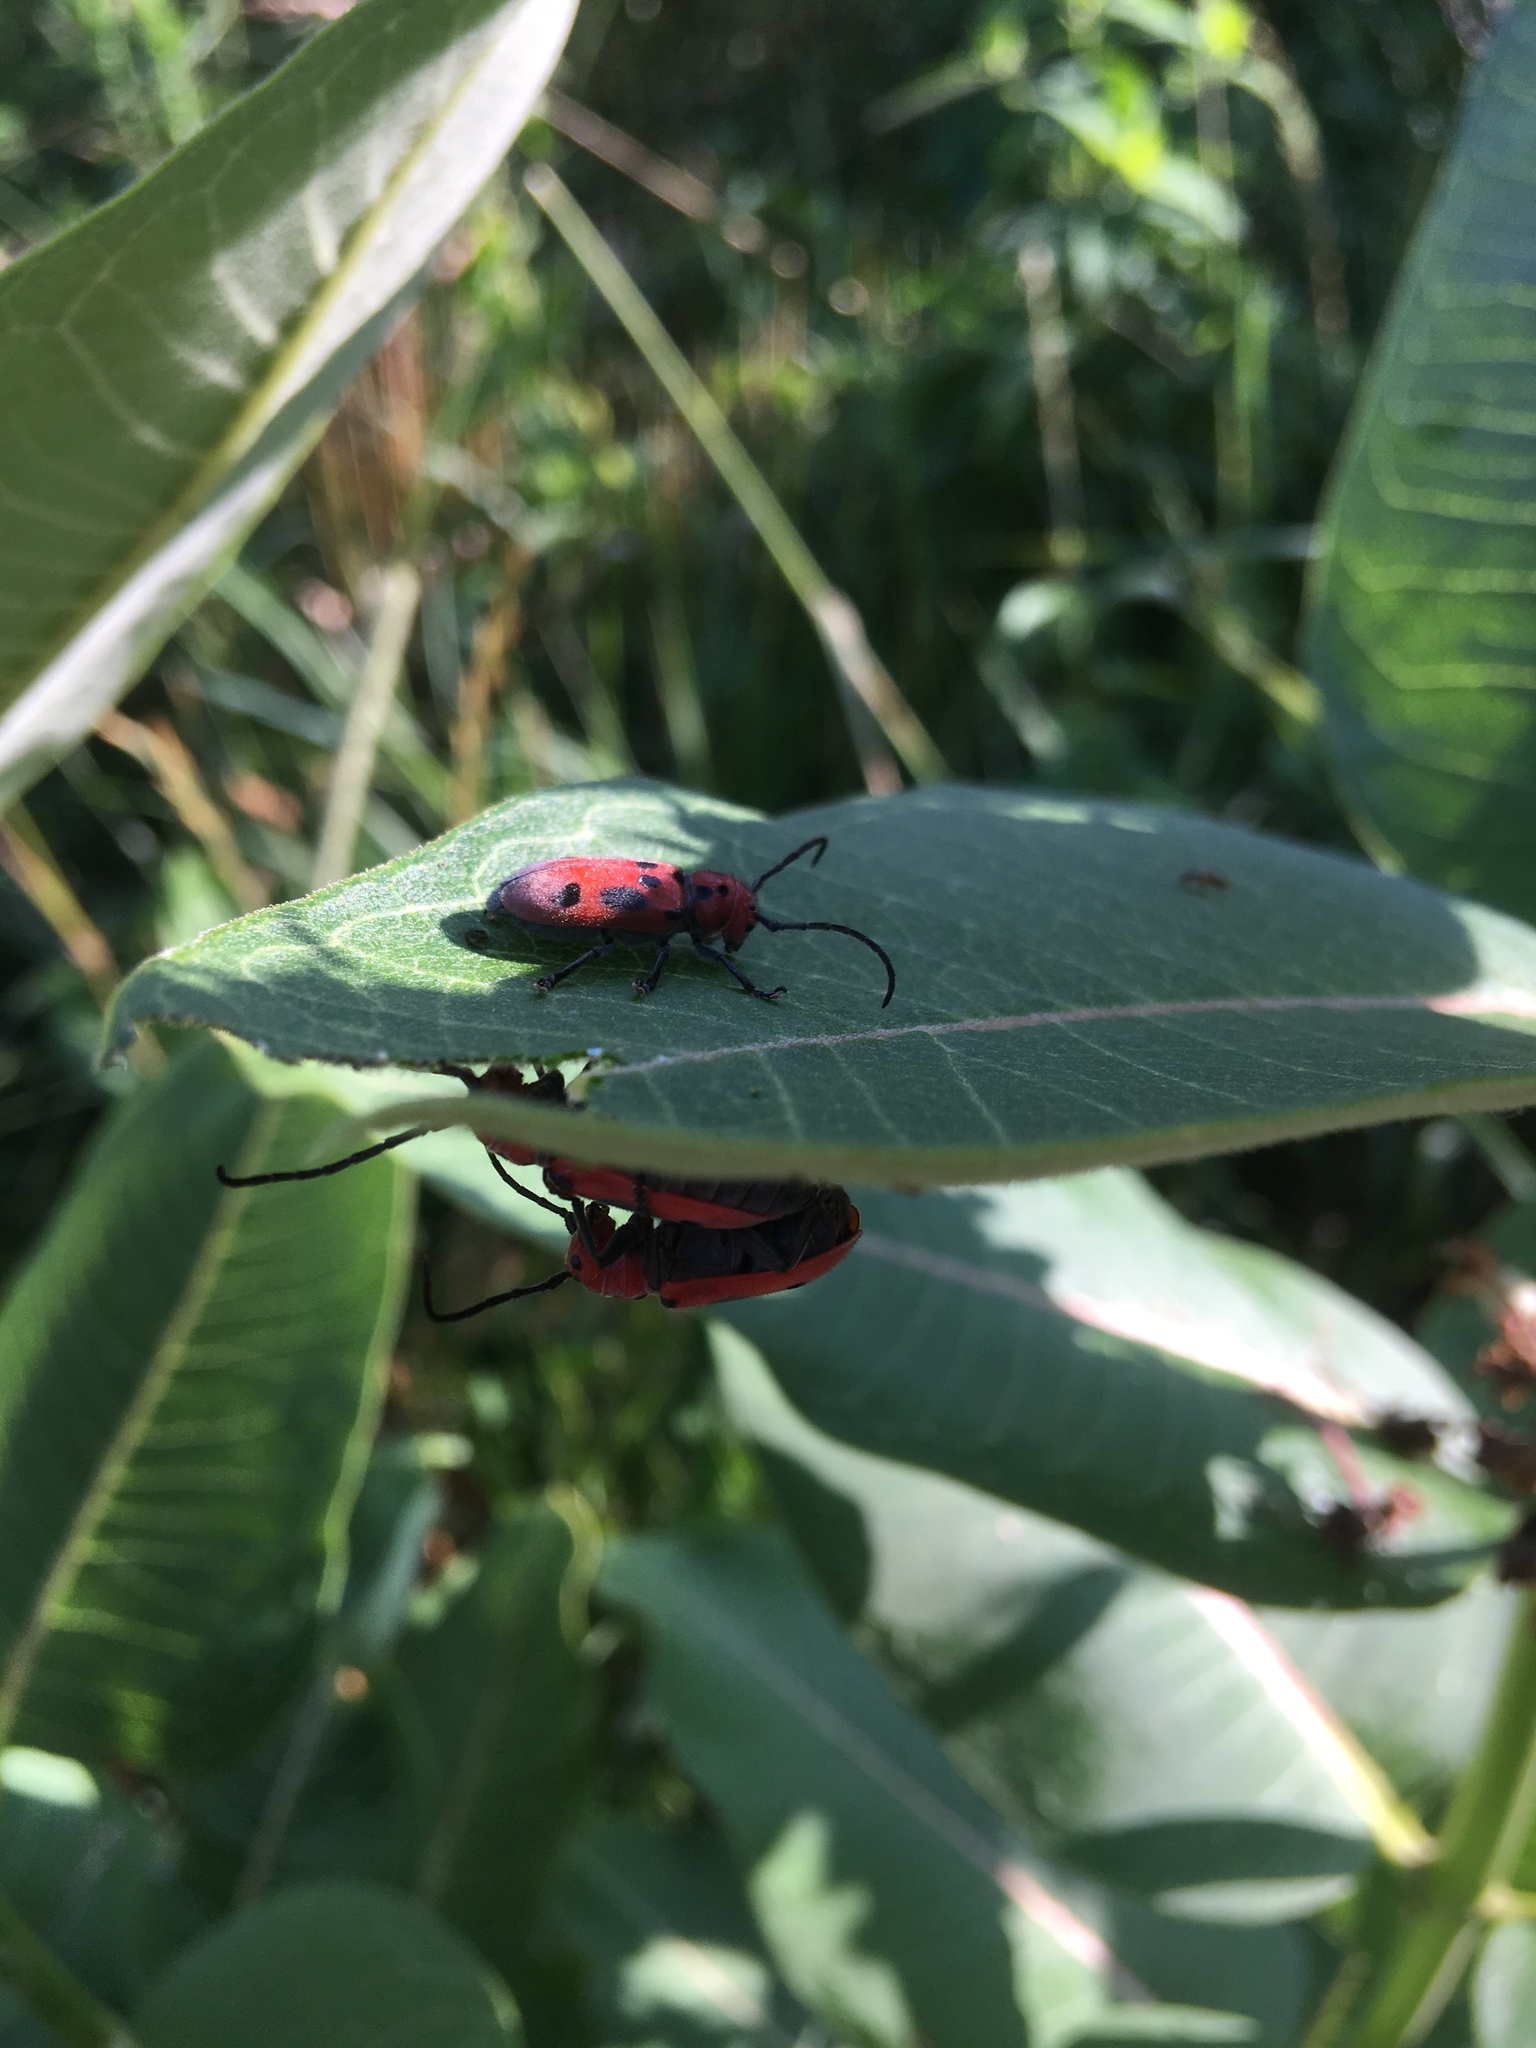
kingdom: Animalia
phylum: Arthropoda
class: Insecta
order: Coleoptera
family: Cerambycidae
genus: Tetraopes
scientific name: Tetraopes tetrophthalmus
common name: Red milkweed beetle
